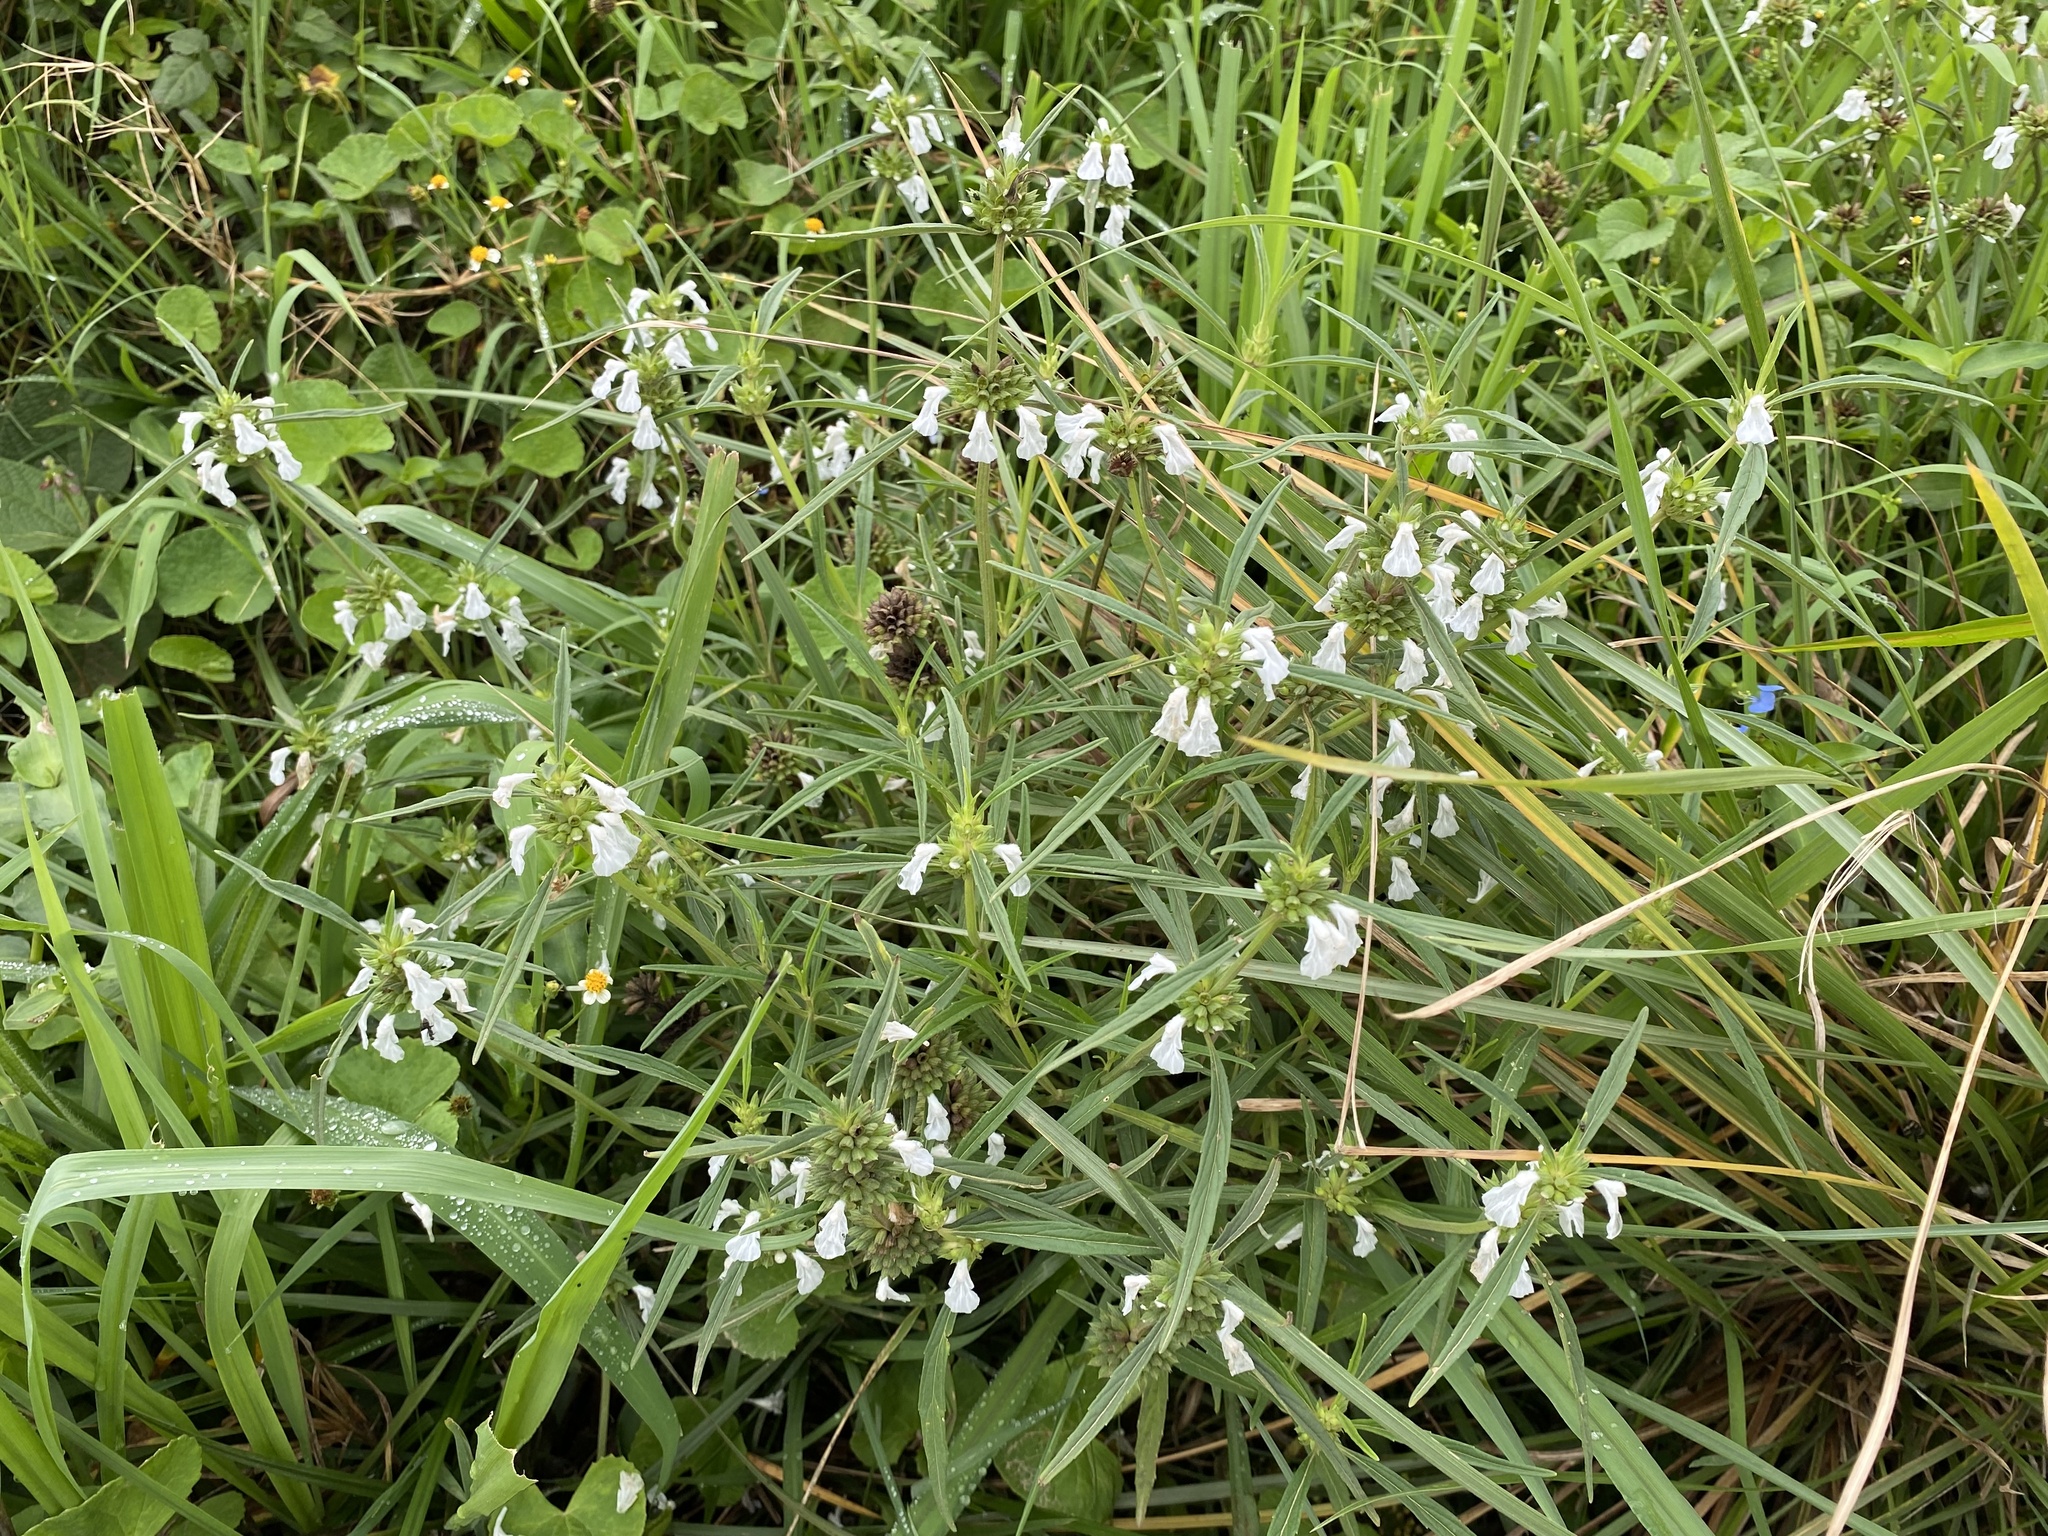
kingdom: Plantae
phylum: Tracheophyta
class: Magnoliopsida
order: Lamiales
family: Lamiaceae
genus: Leucas
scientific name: Leucas lavandulifolia
